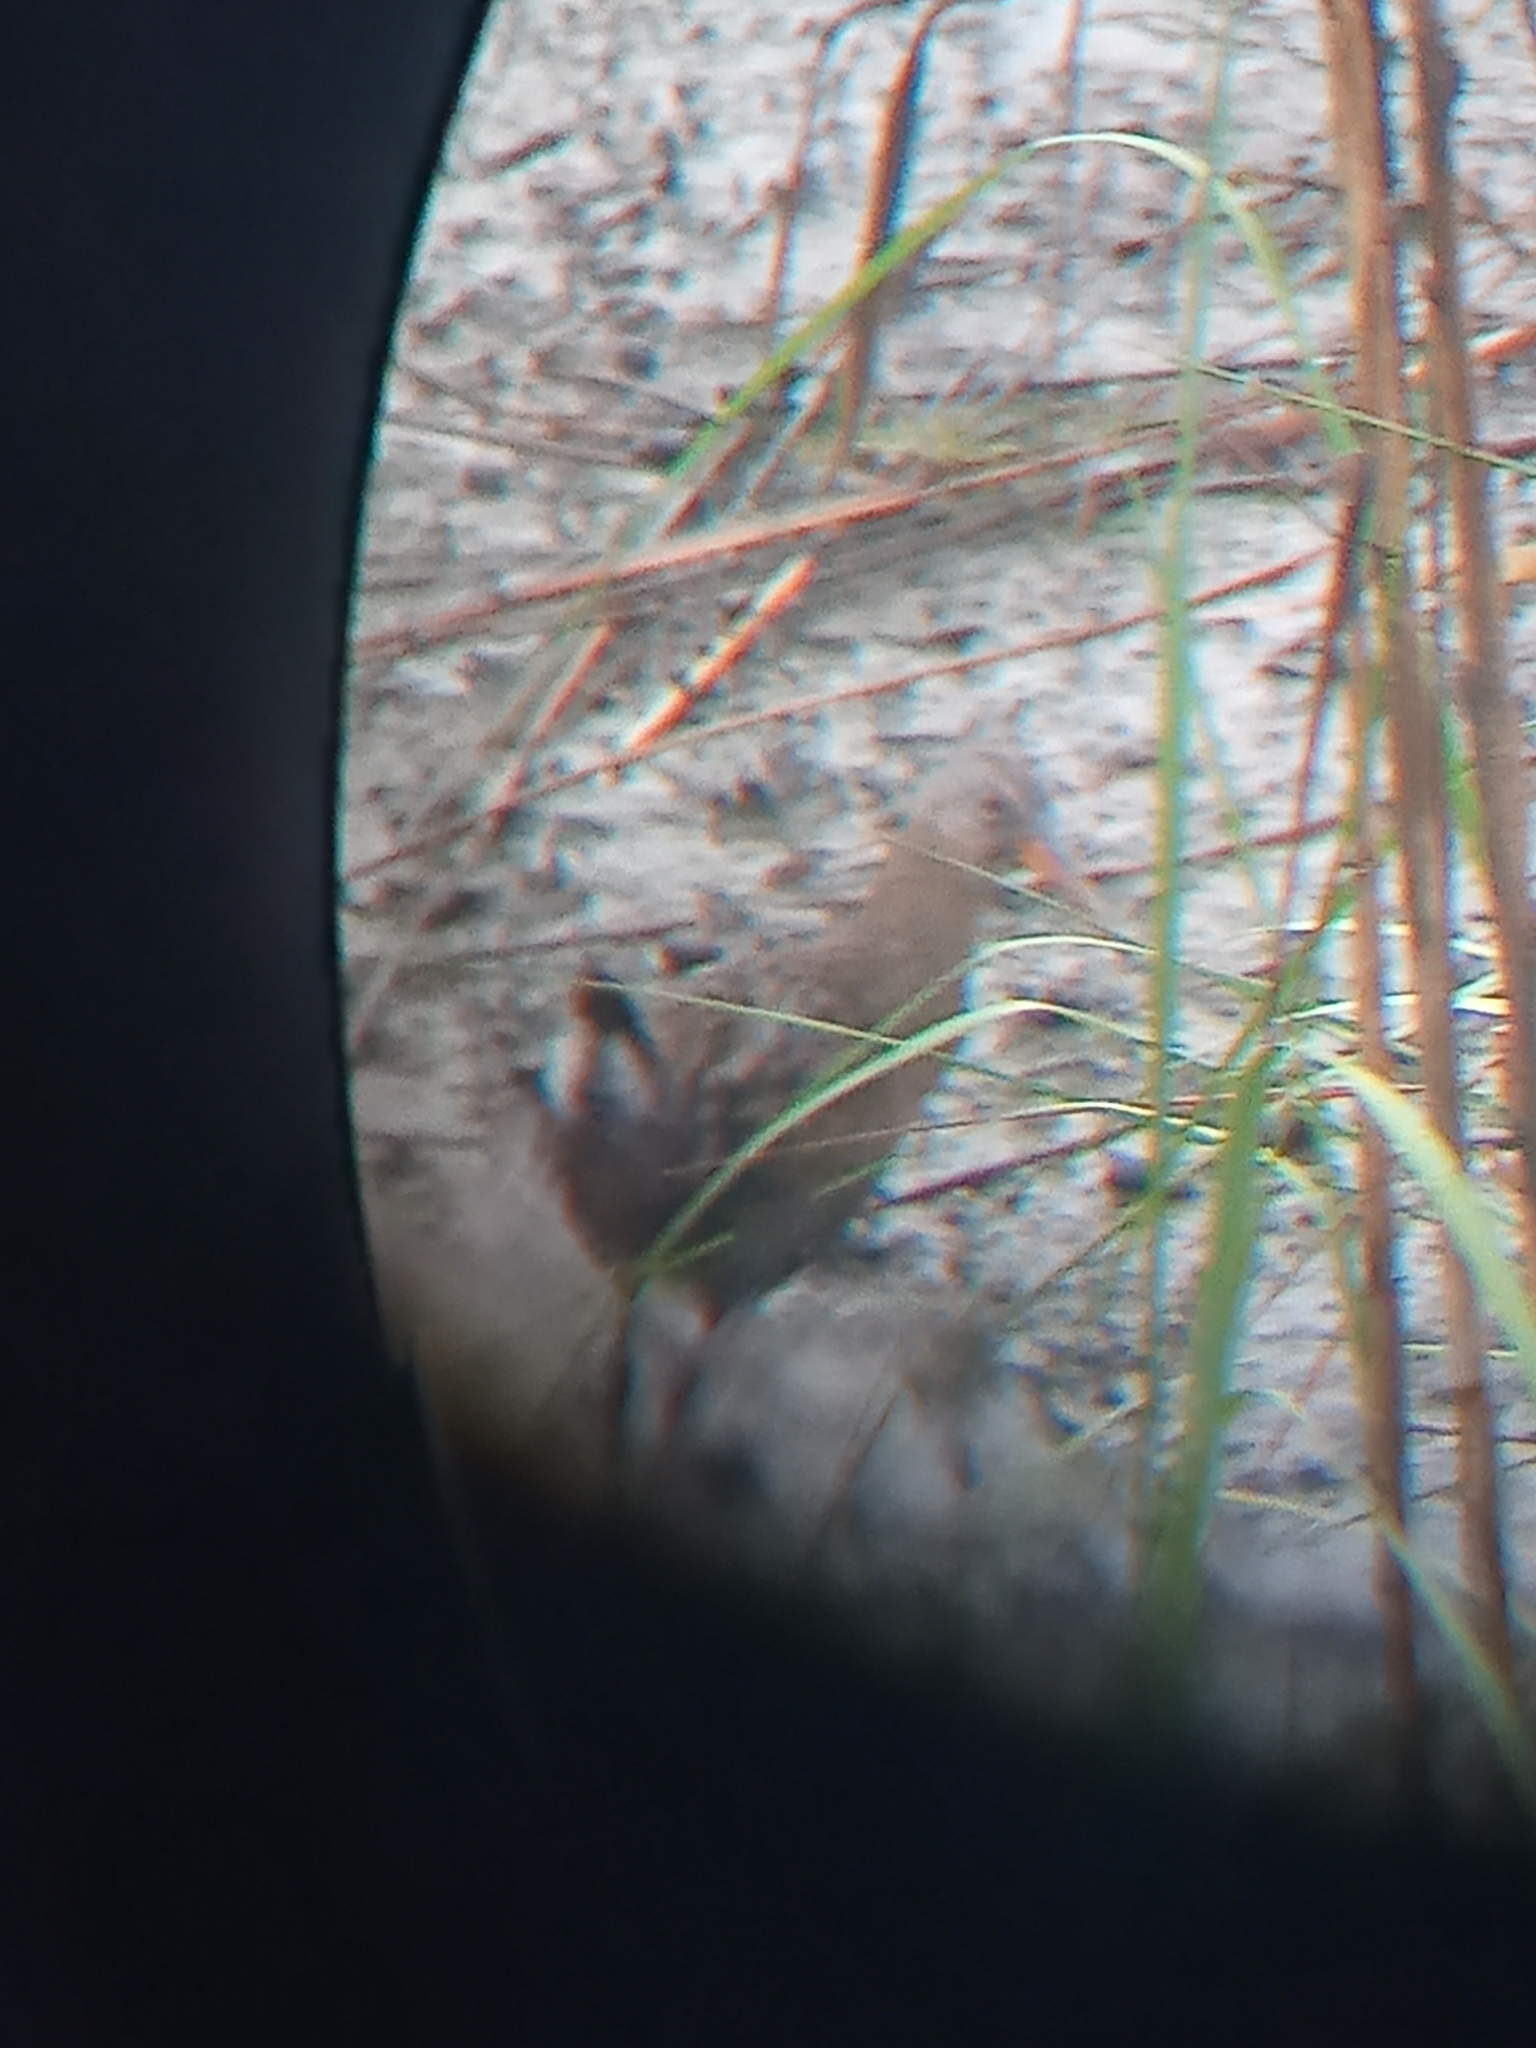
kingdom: Animalia
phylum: Chordata
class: Aves
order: Gruiformes
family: Rallidae
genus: Rallus
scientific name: Rallus crepitans
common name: Clapper rail
